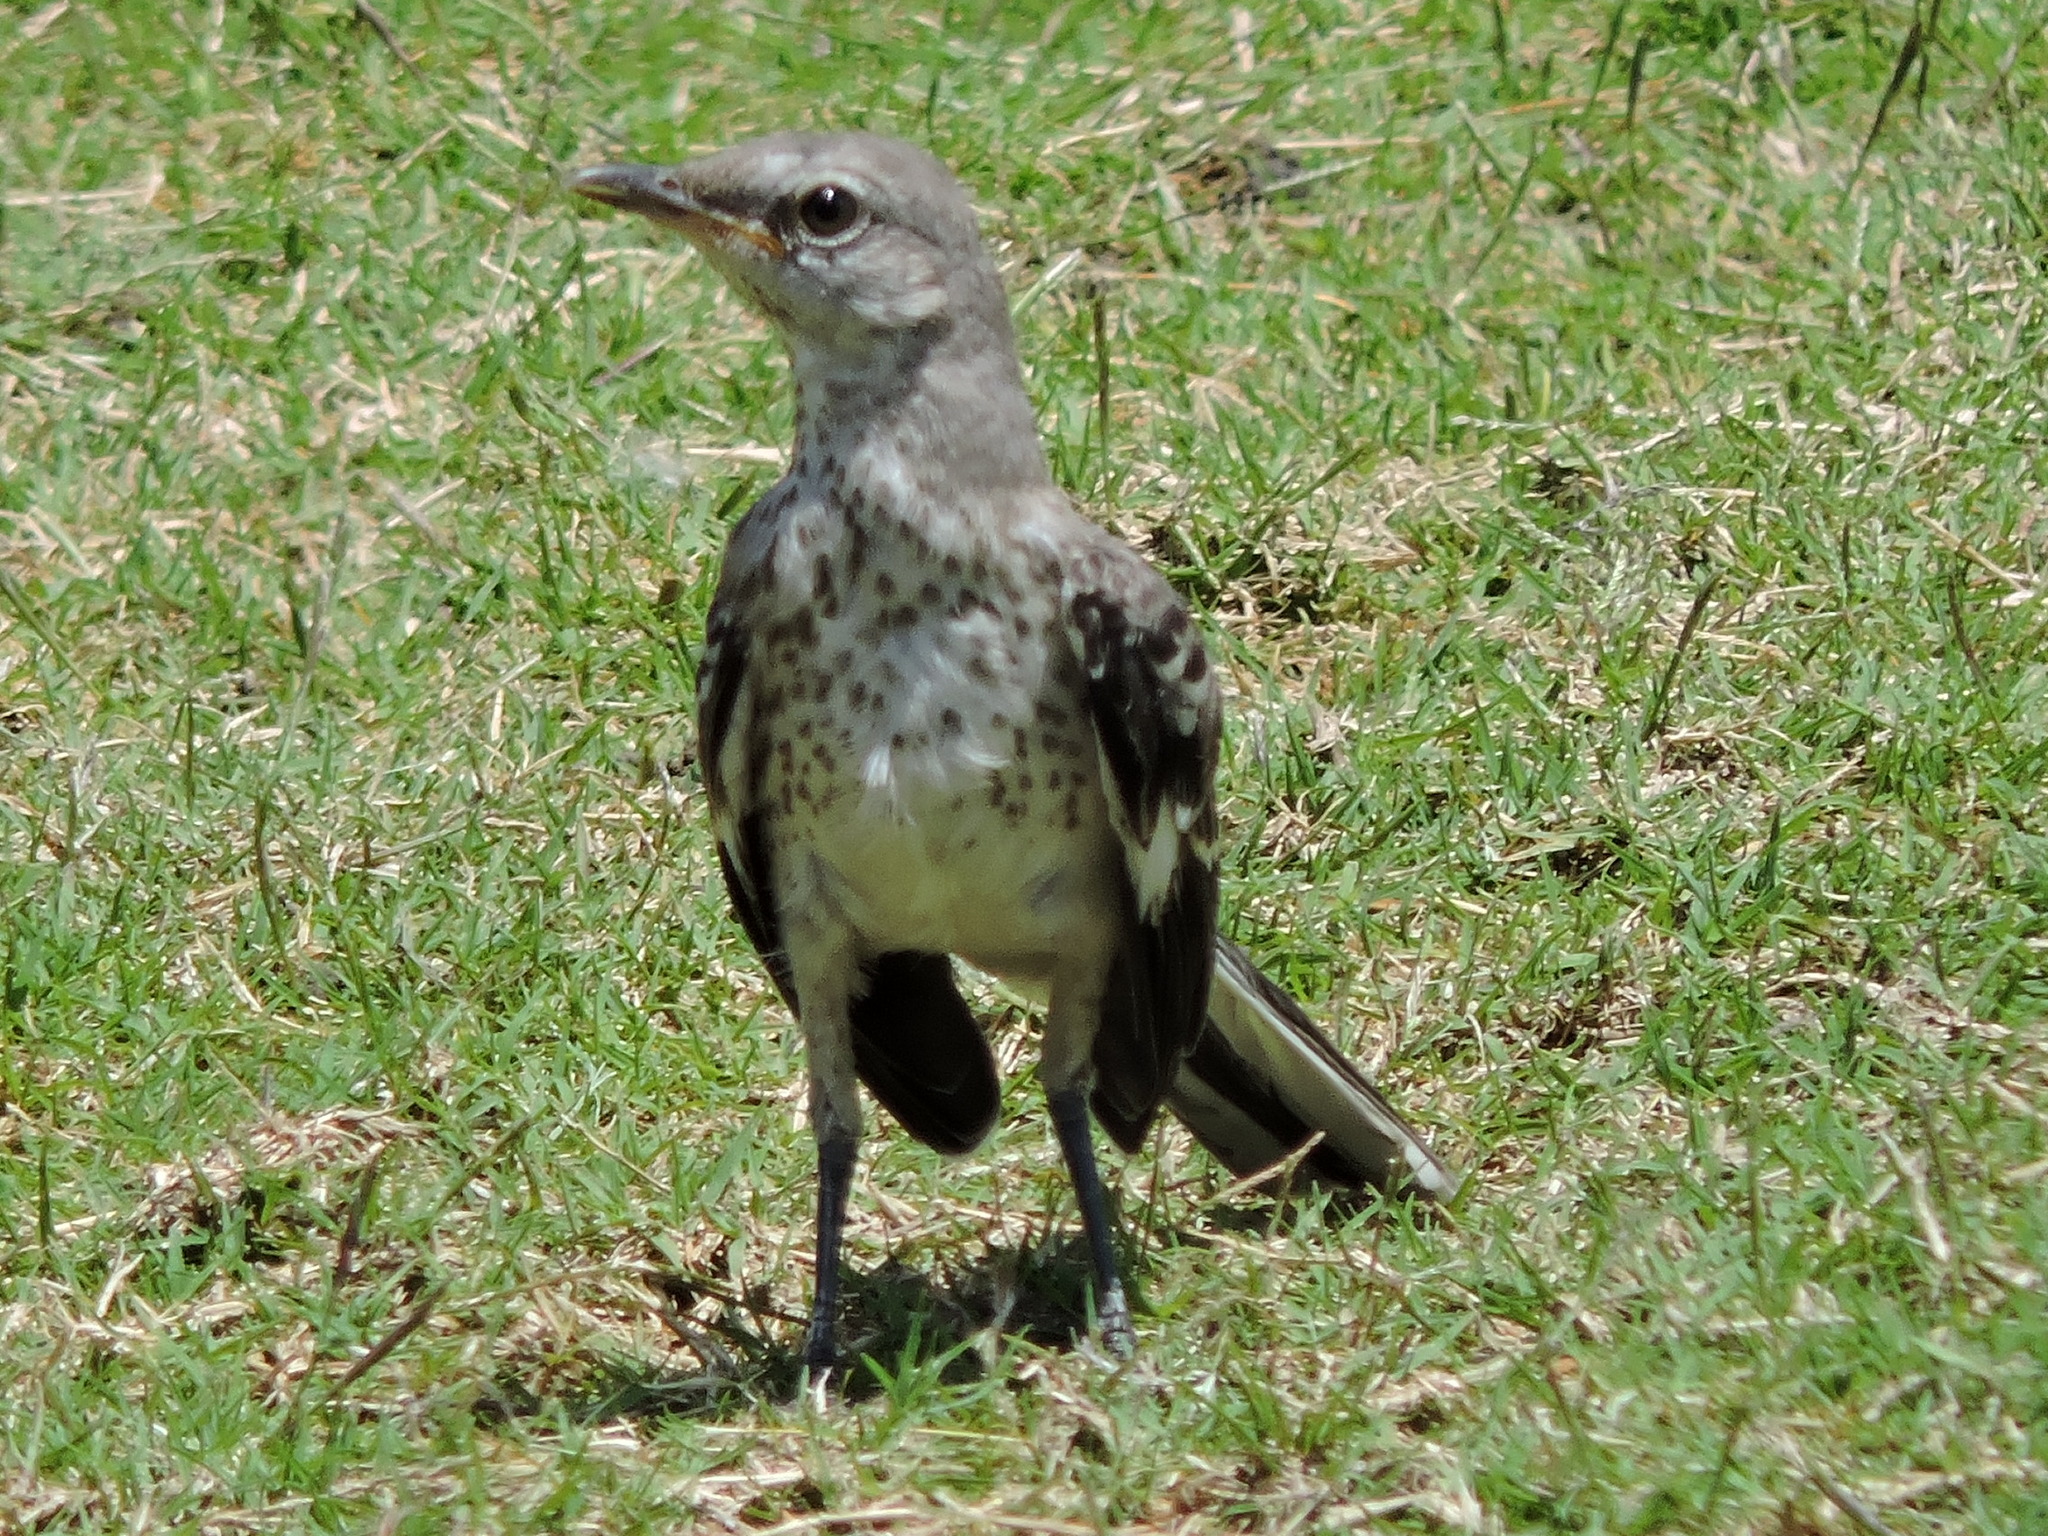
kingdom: Animalia
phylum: Chordata
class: Aves
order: Passeriformes
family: Mimidae
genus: Mimus
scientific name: Mimus polyglottos
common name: Northern mockingbird
